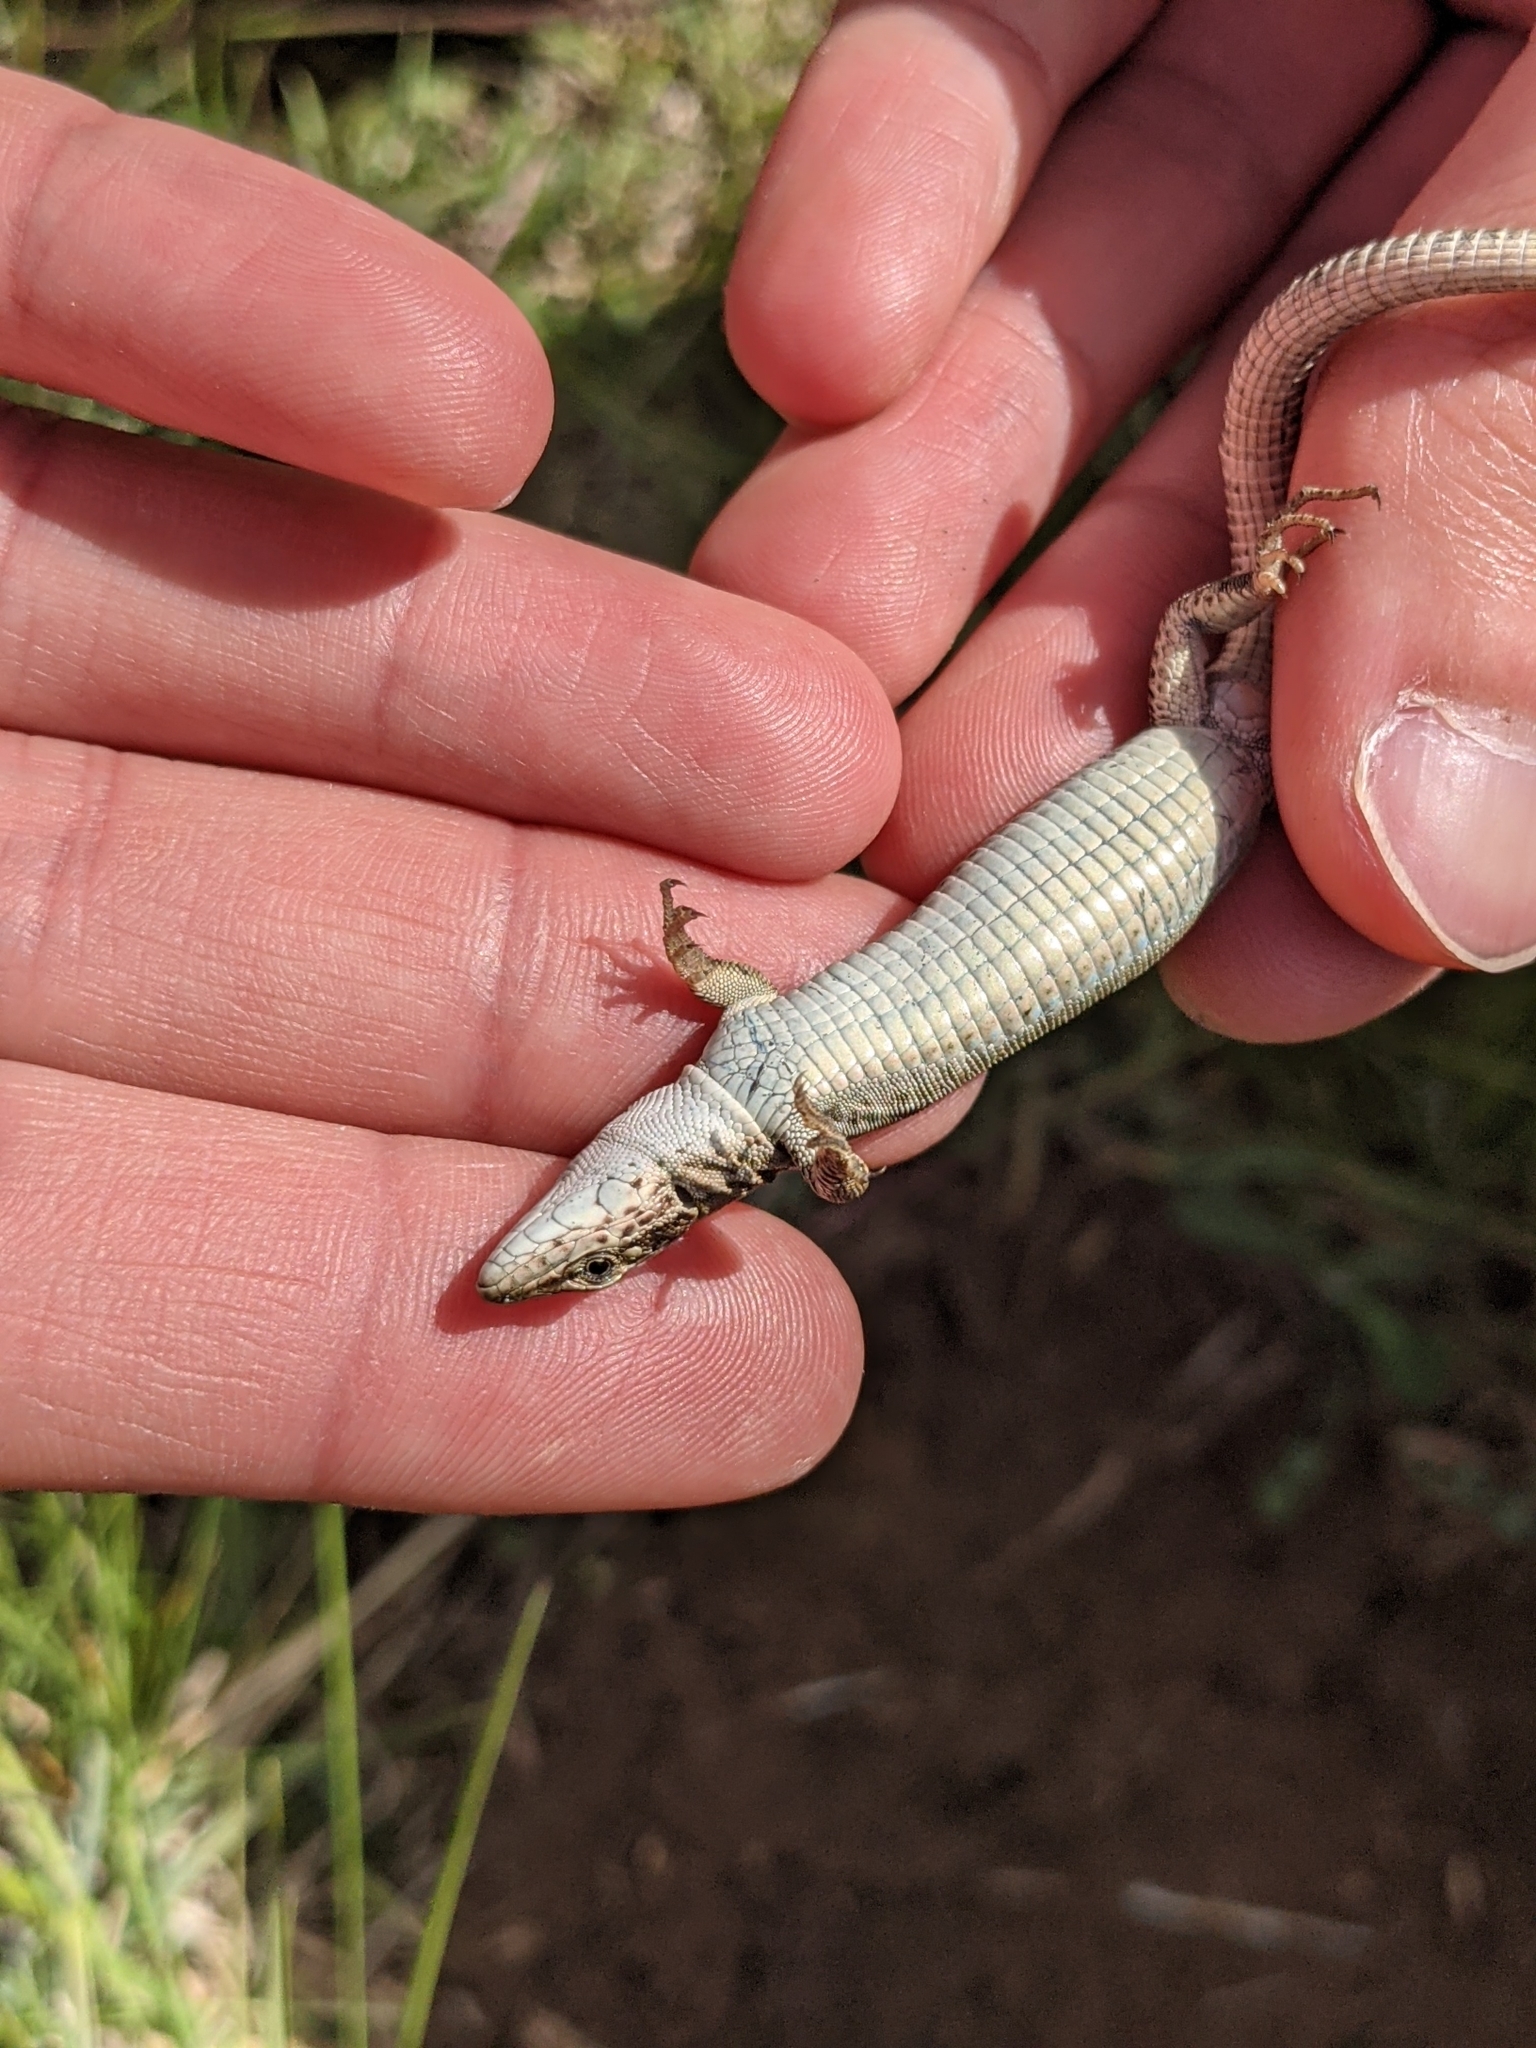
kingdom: Animalia
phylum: Chordata
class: Squamata
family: Lacertidae
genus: Podarcis
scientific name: Podarcis liolepis
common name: Catalonian wall lizard
